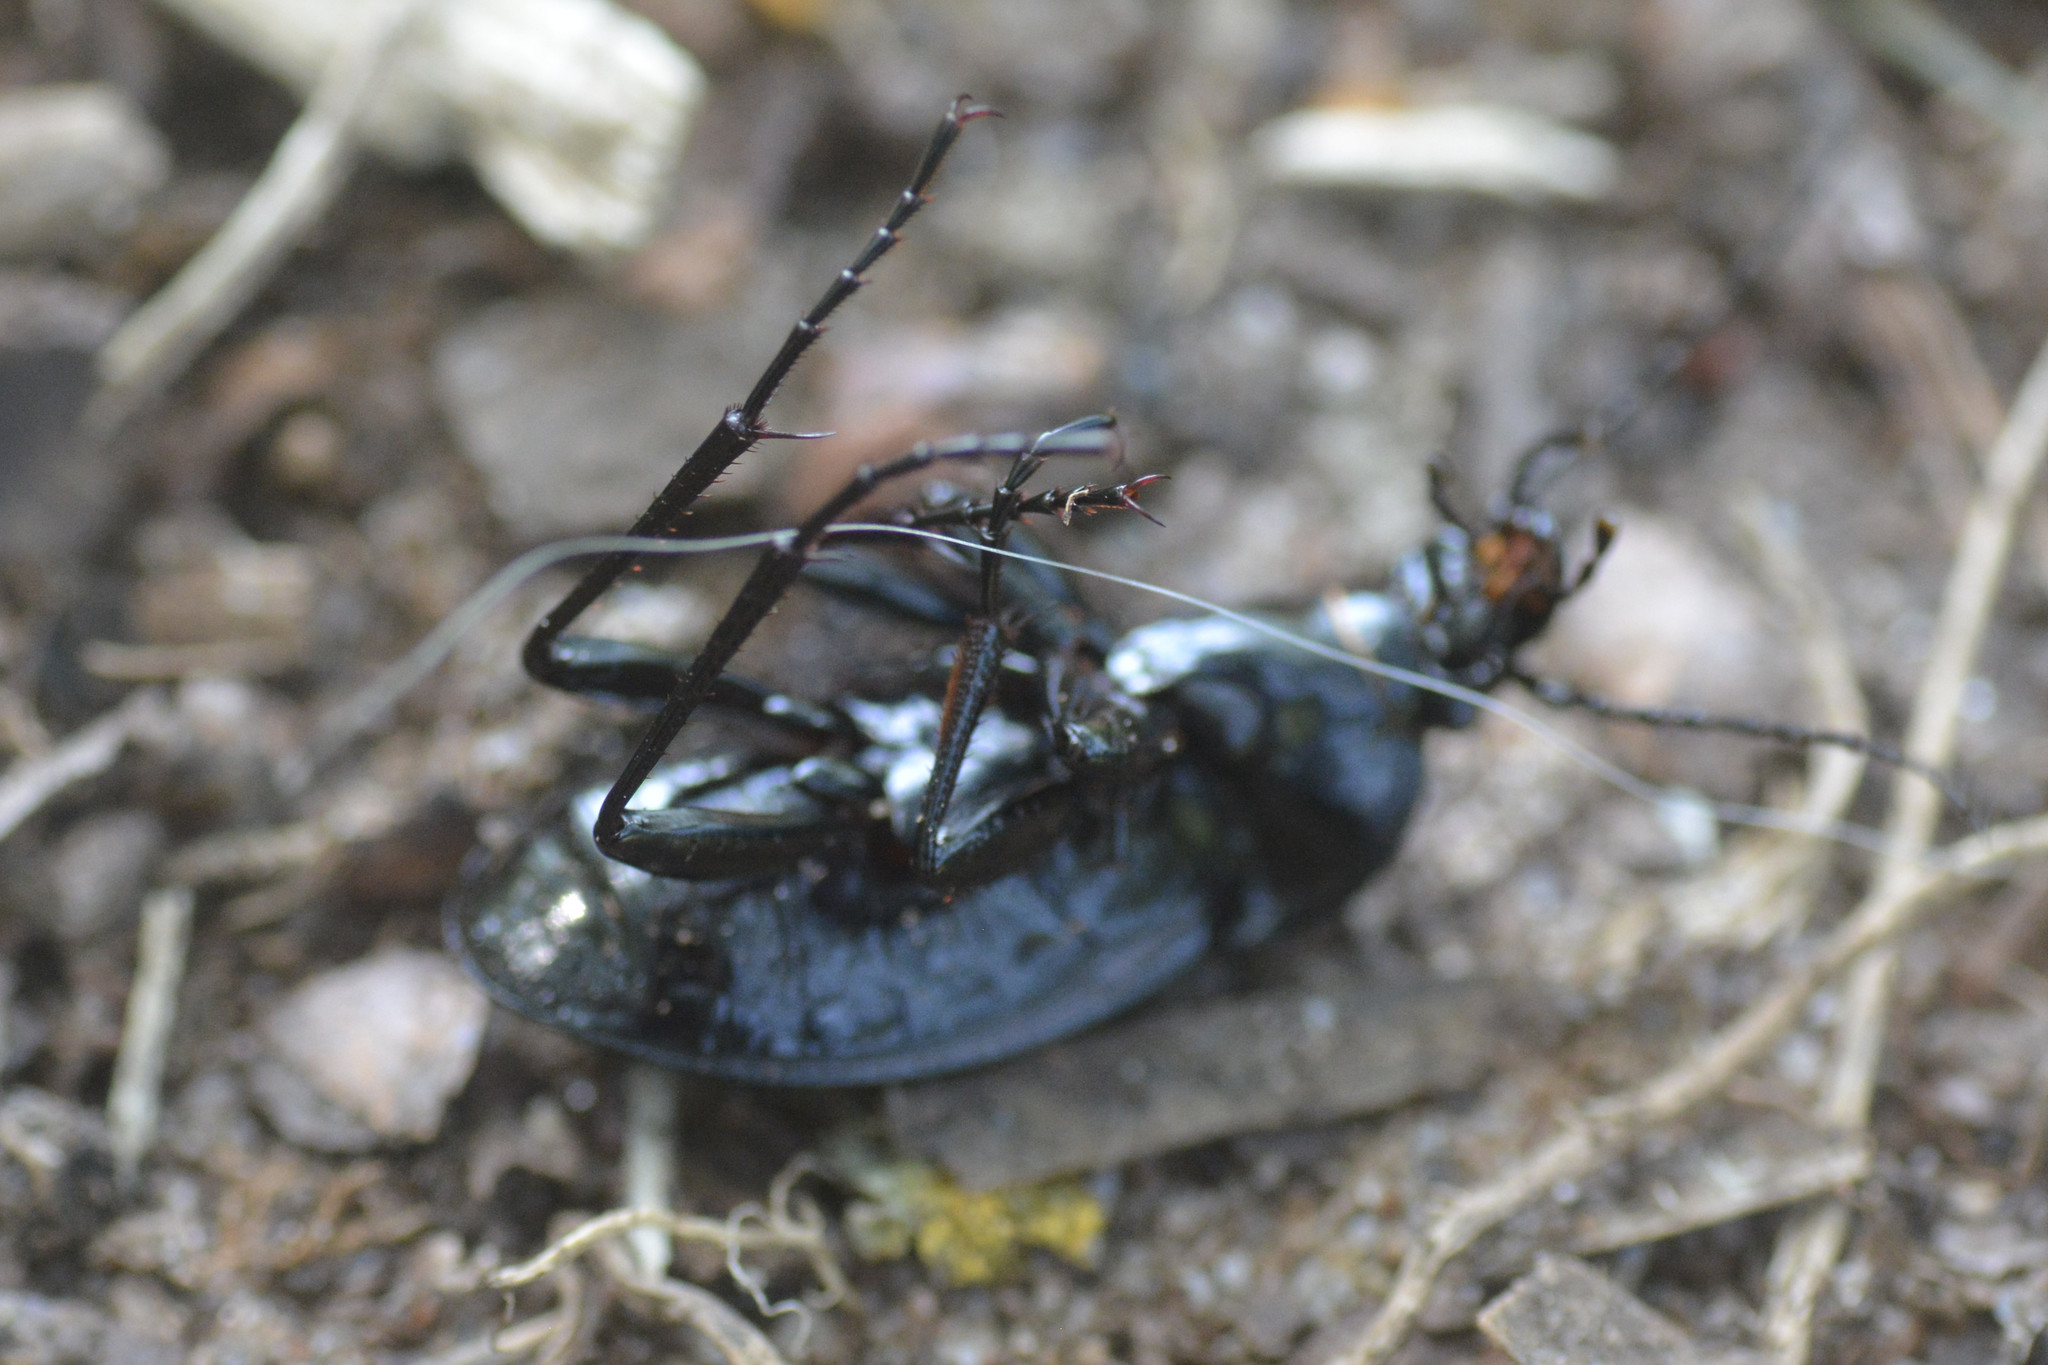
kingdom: Animalia
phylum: Arthropoda
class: Insecta
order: Coleoptera
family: Carabidae
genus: Carabus
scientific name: Carabus nemoralis
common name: European ground beetle
